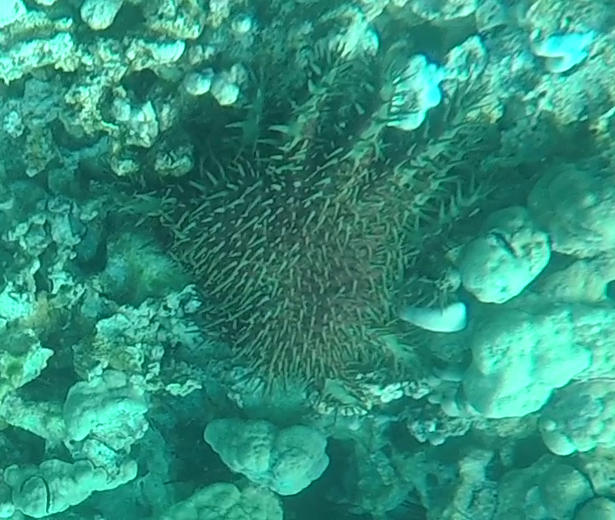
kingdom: Animalia
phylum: Echinodermata
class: Asteroidea
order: Valvatida
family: Acanthasteridae
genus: Acanthaster
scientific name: Acanthaster planci
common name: Crown-of-thorns
